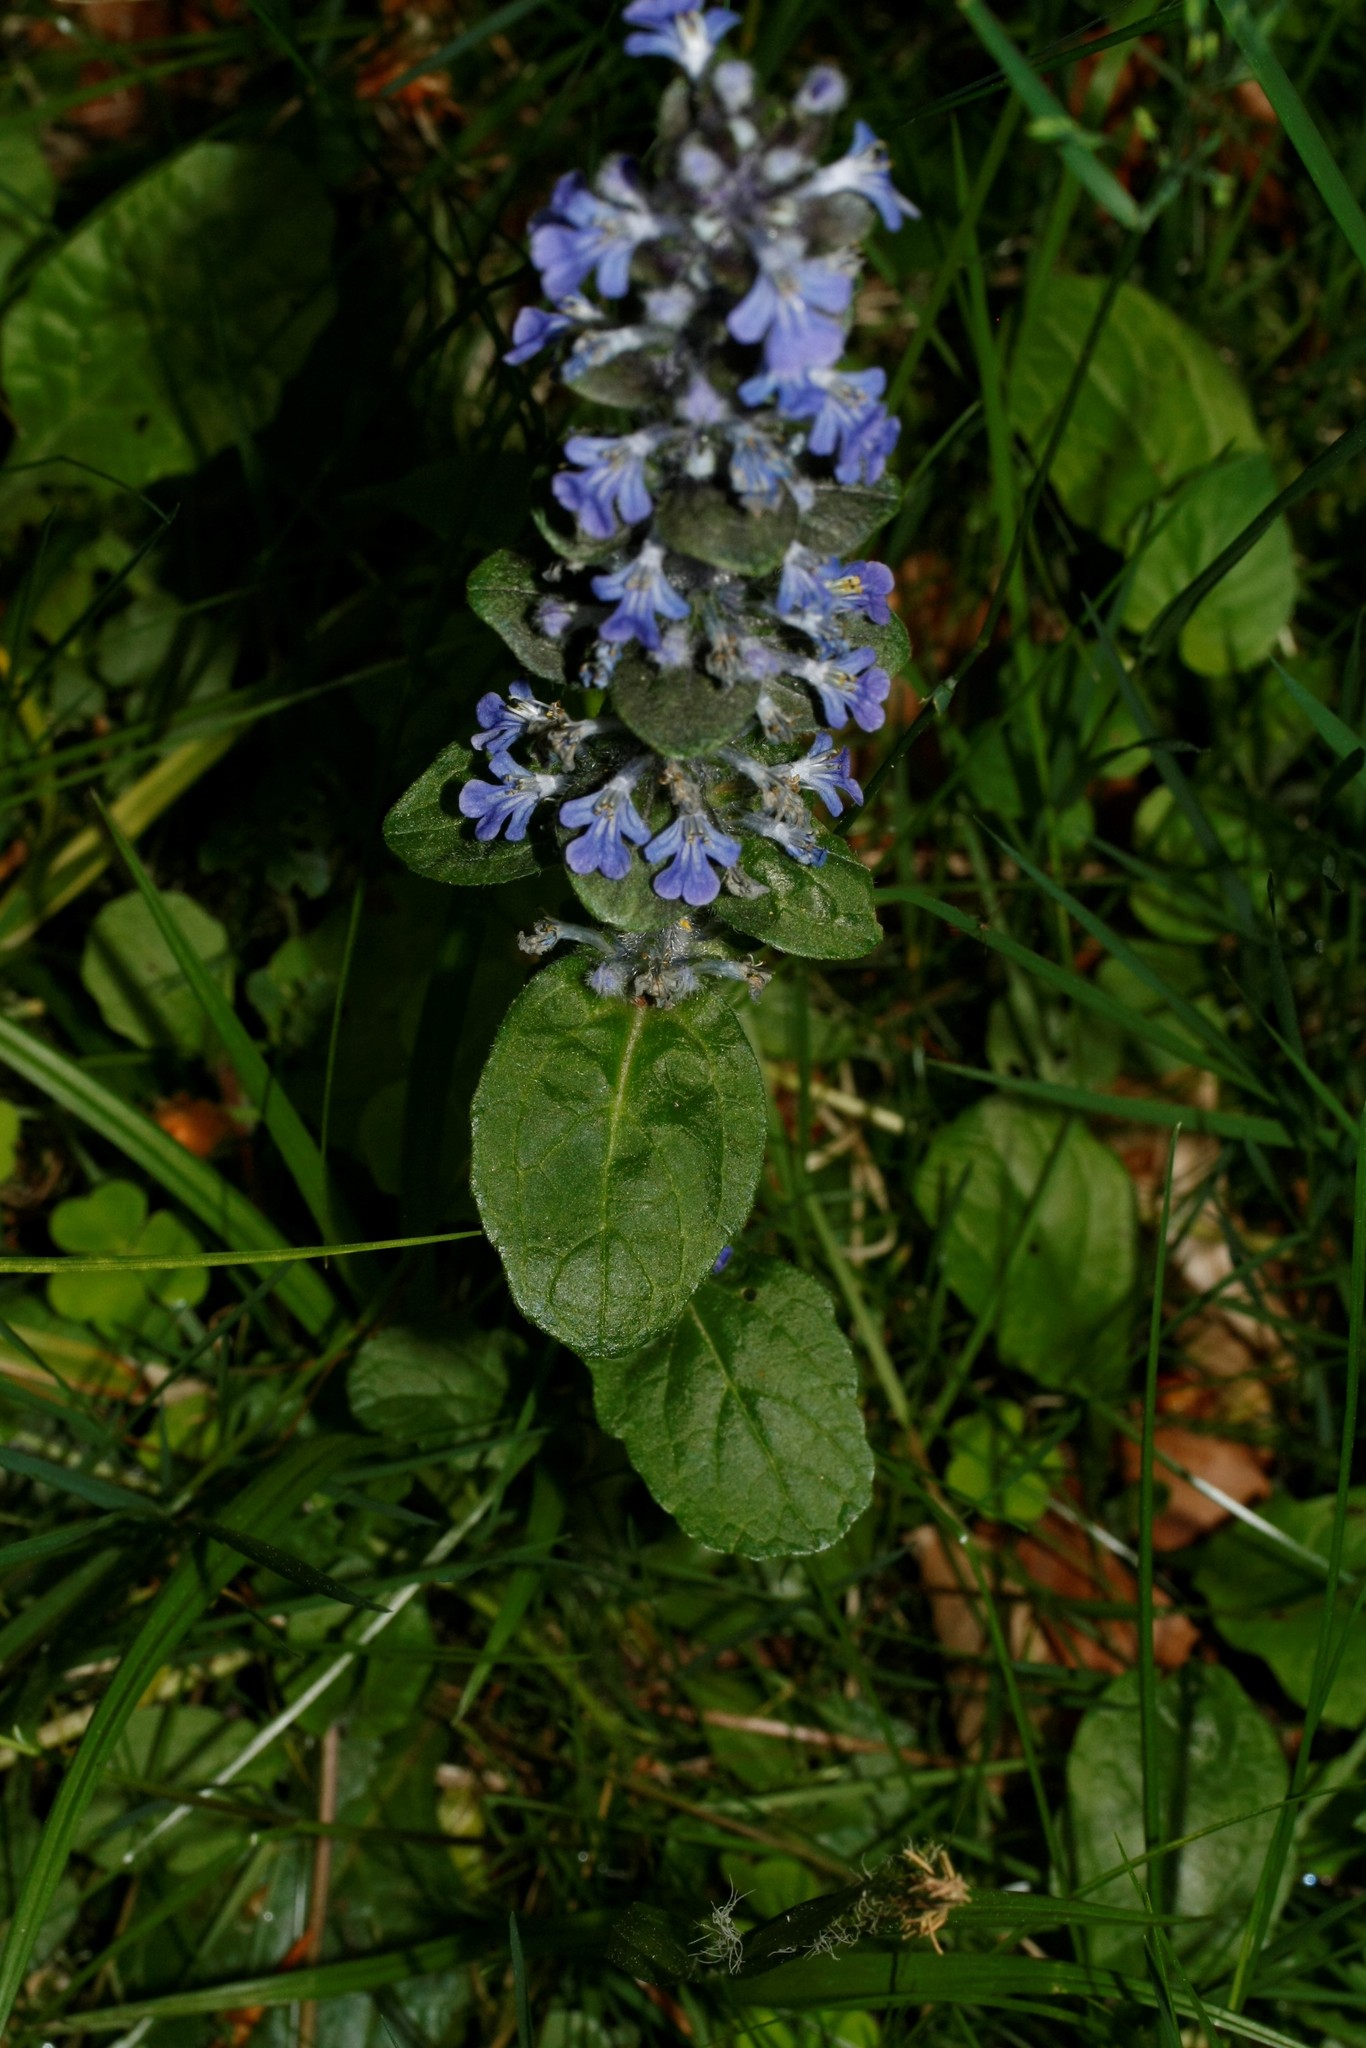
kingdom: Plantae
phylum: Tracheophyta
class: Magnoliopsida
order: Lamiales
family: Lamiaceae
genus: Ajuga
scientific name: Ajuga reptans
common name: Bugle
